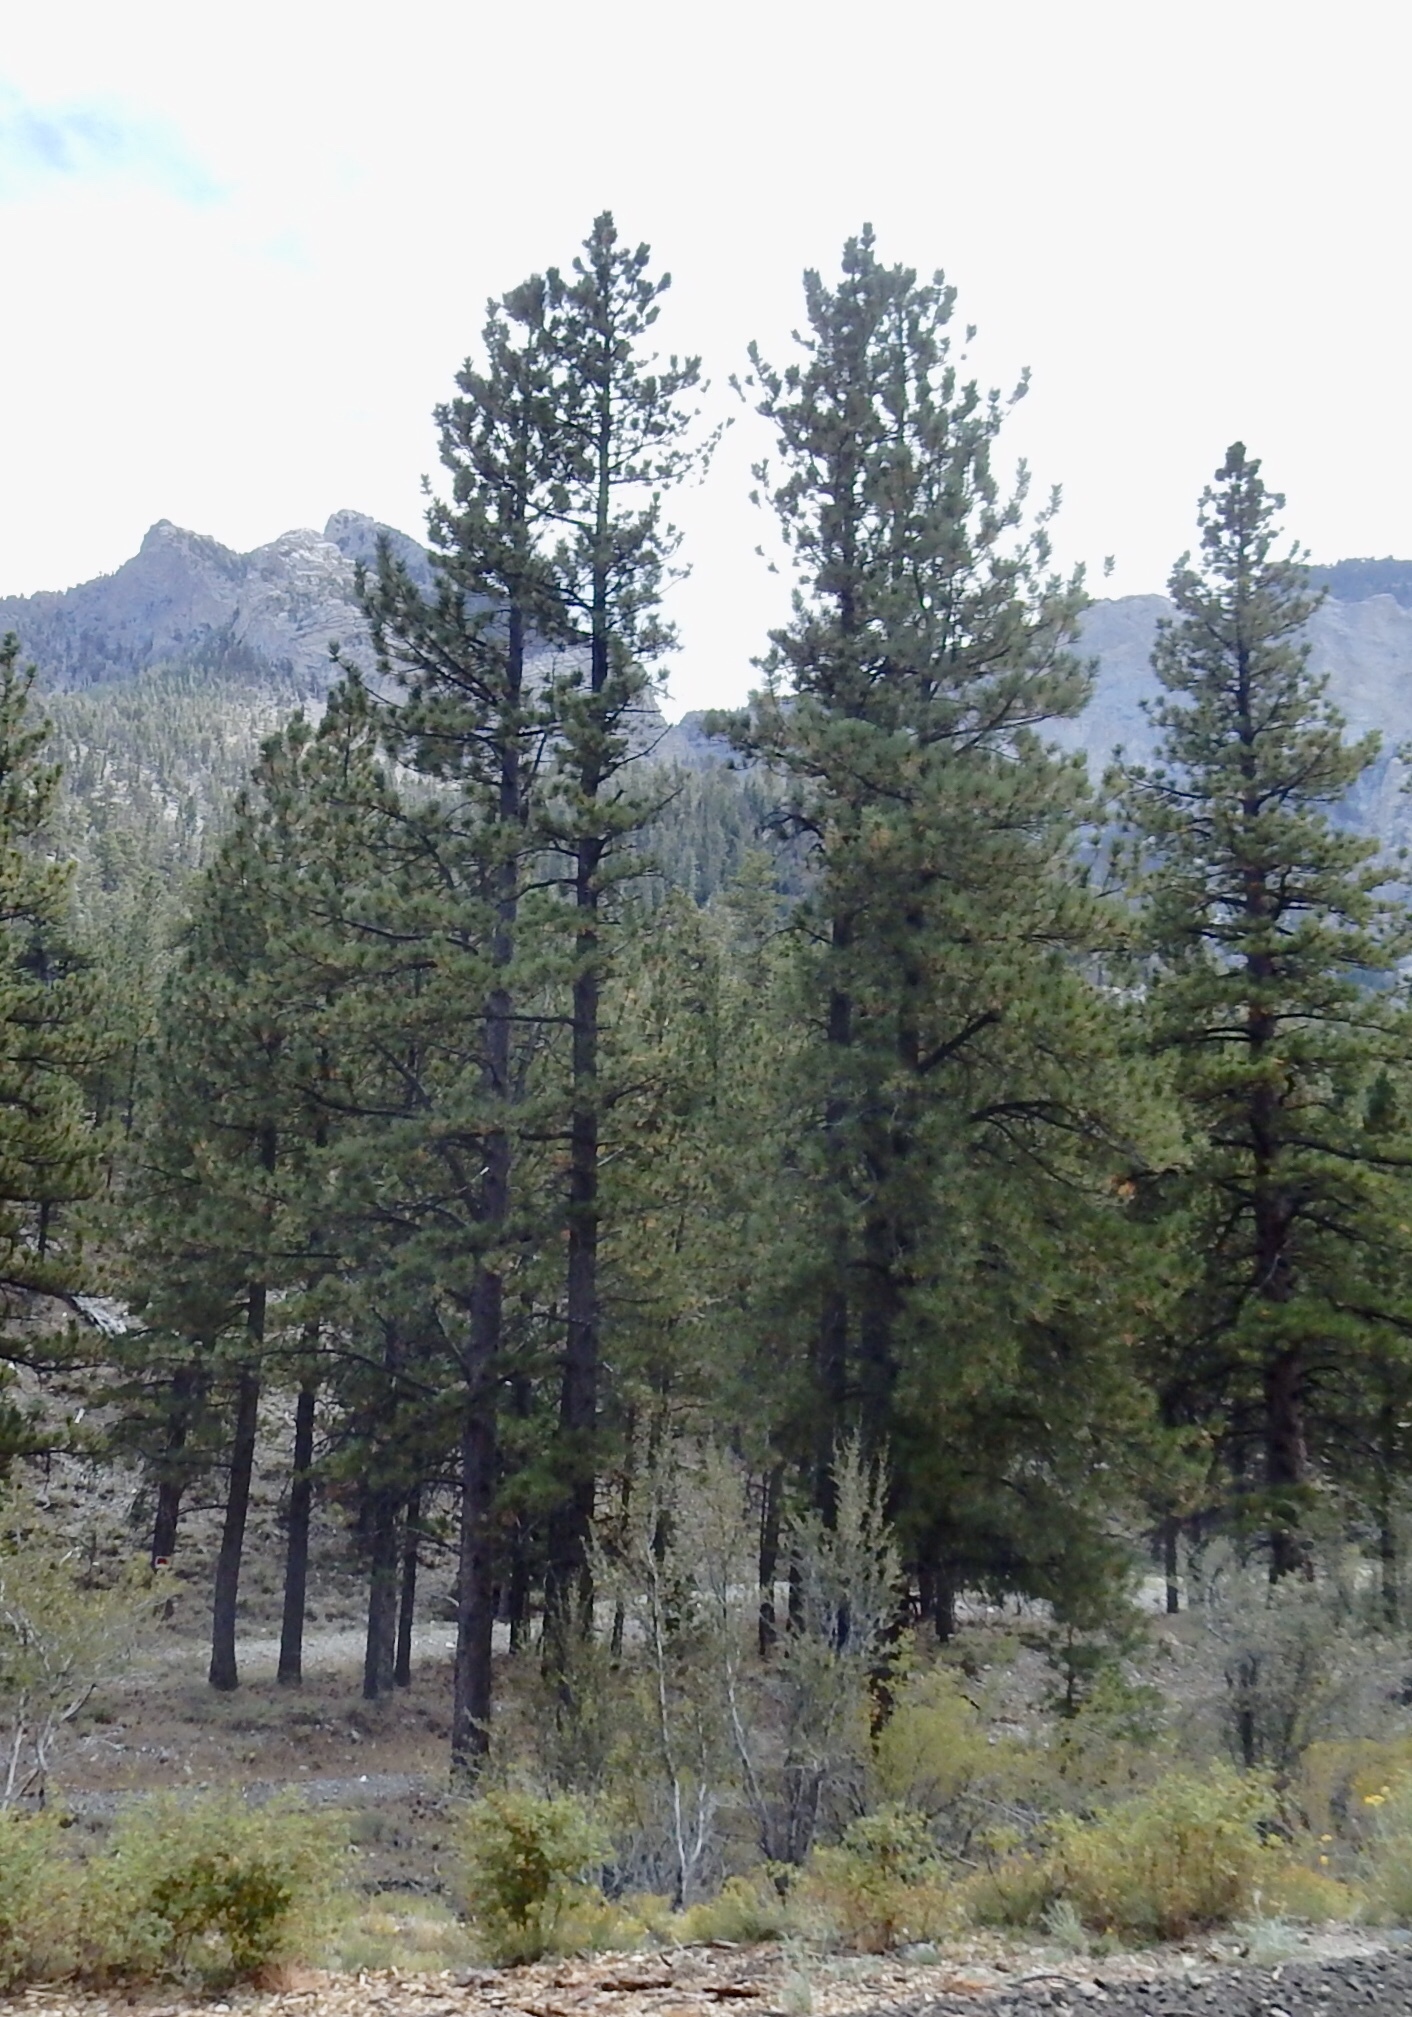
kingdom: Plantae
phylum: Tracheophyta
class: Pinopsida
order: Pinales
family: Pinaceae
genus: Pinus
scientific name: Pinus ponderosa
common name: Western yellow-pine
